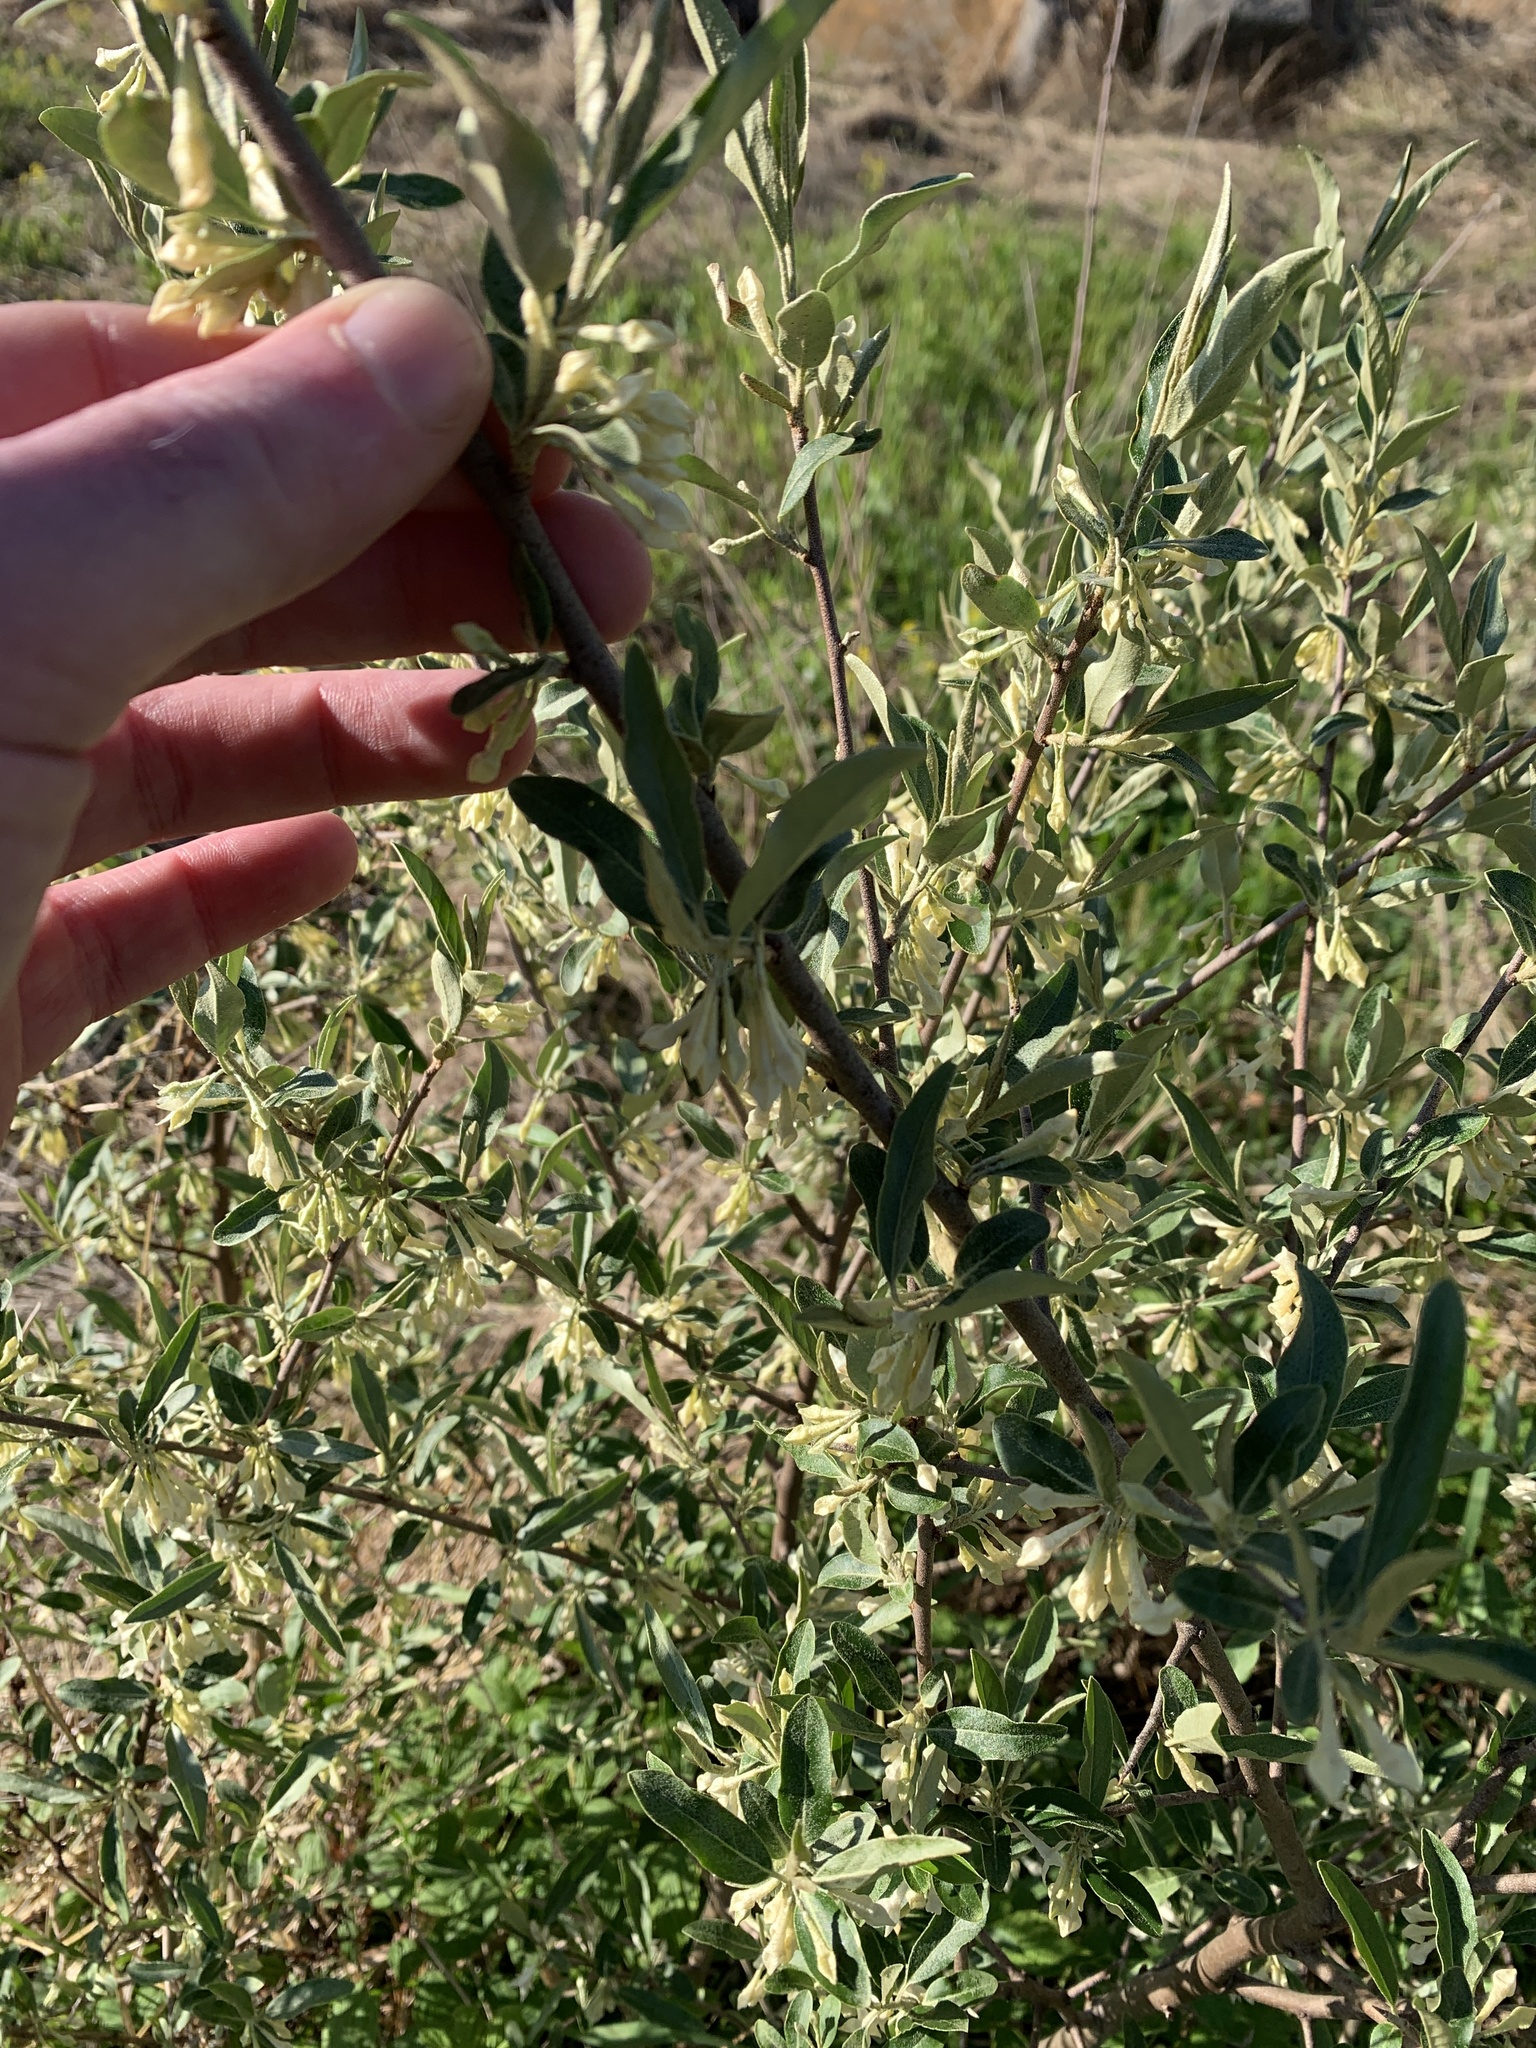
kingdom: Plantae
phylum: Tracheophyta
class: Magnoliopsida
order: Rosales
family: Elaeagnaceae
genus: Elaeagnus
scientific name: Elaeagnus umbellata
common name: Autumn olive
